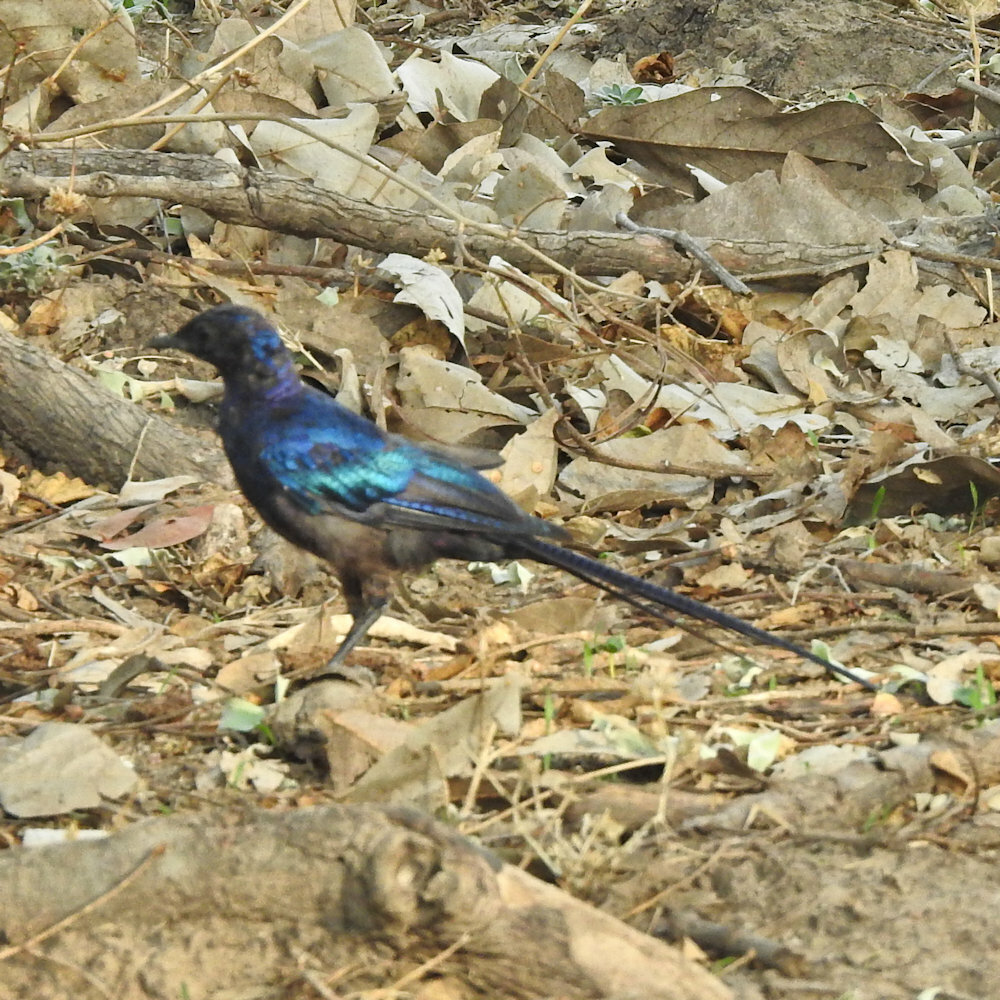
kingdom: Animalia
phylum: Chordata
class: Aves
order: Passeriformes
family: Sturnidae
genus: Lamprotornis
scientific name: Lamprotornis mevesii
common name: Meves's starling
